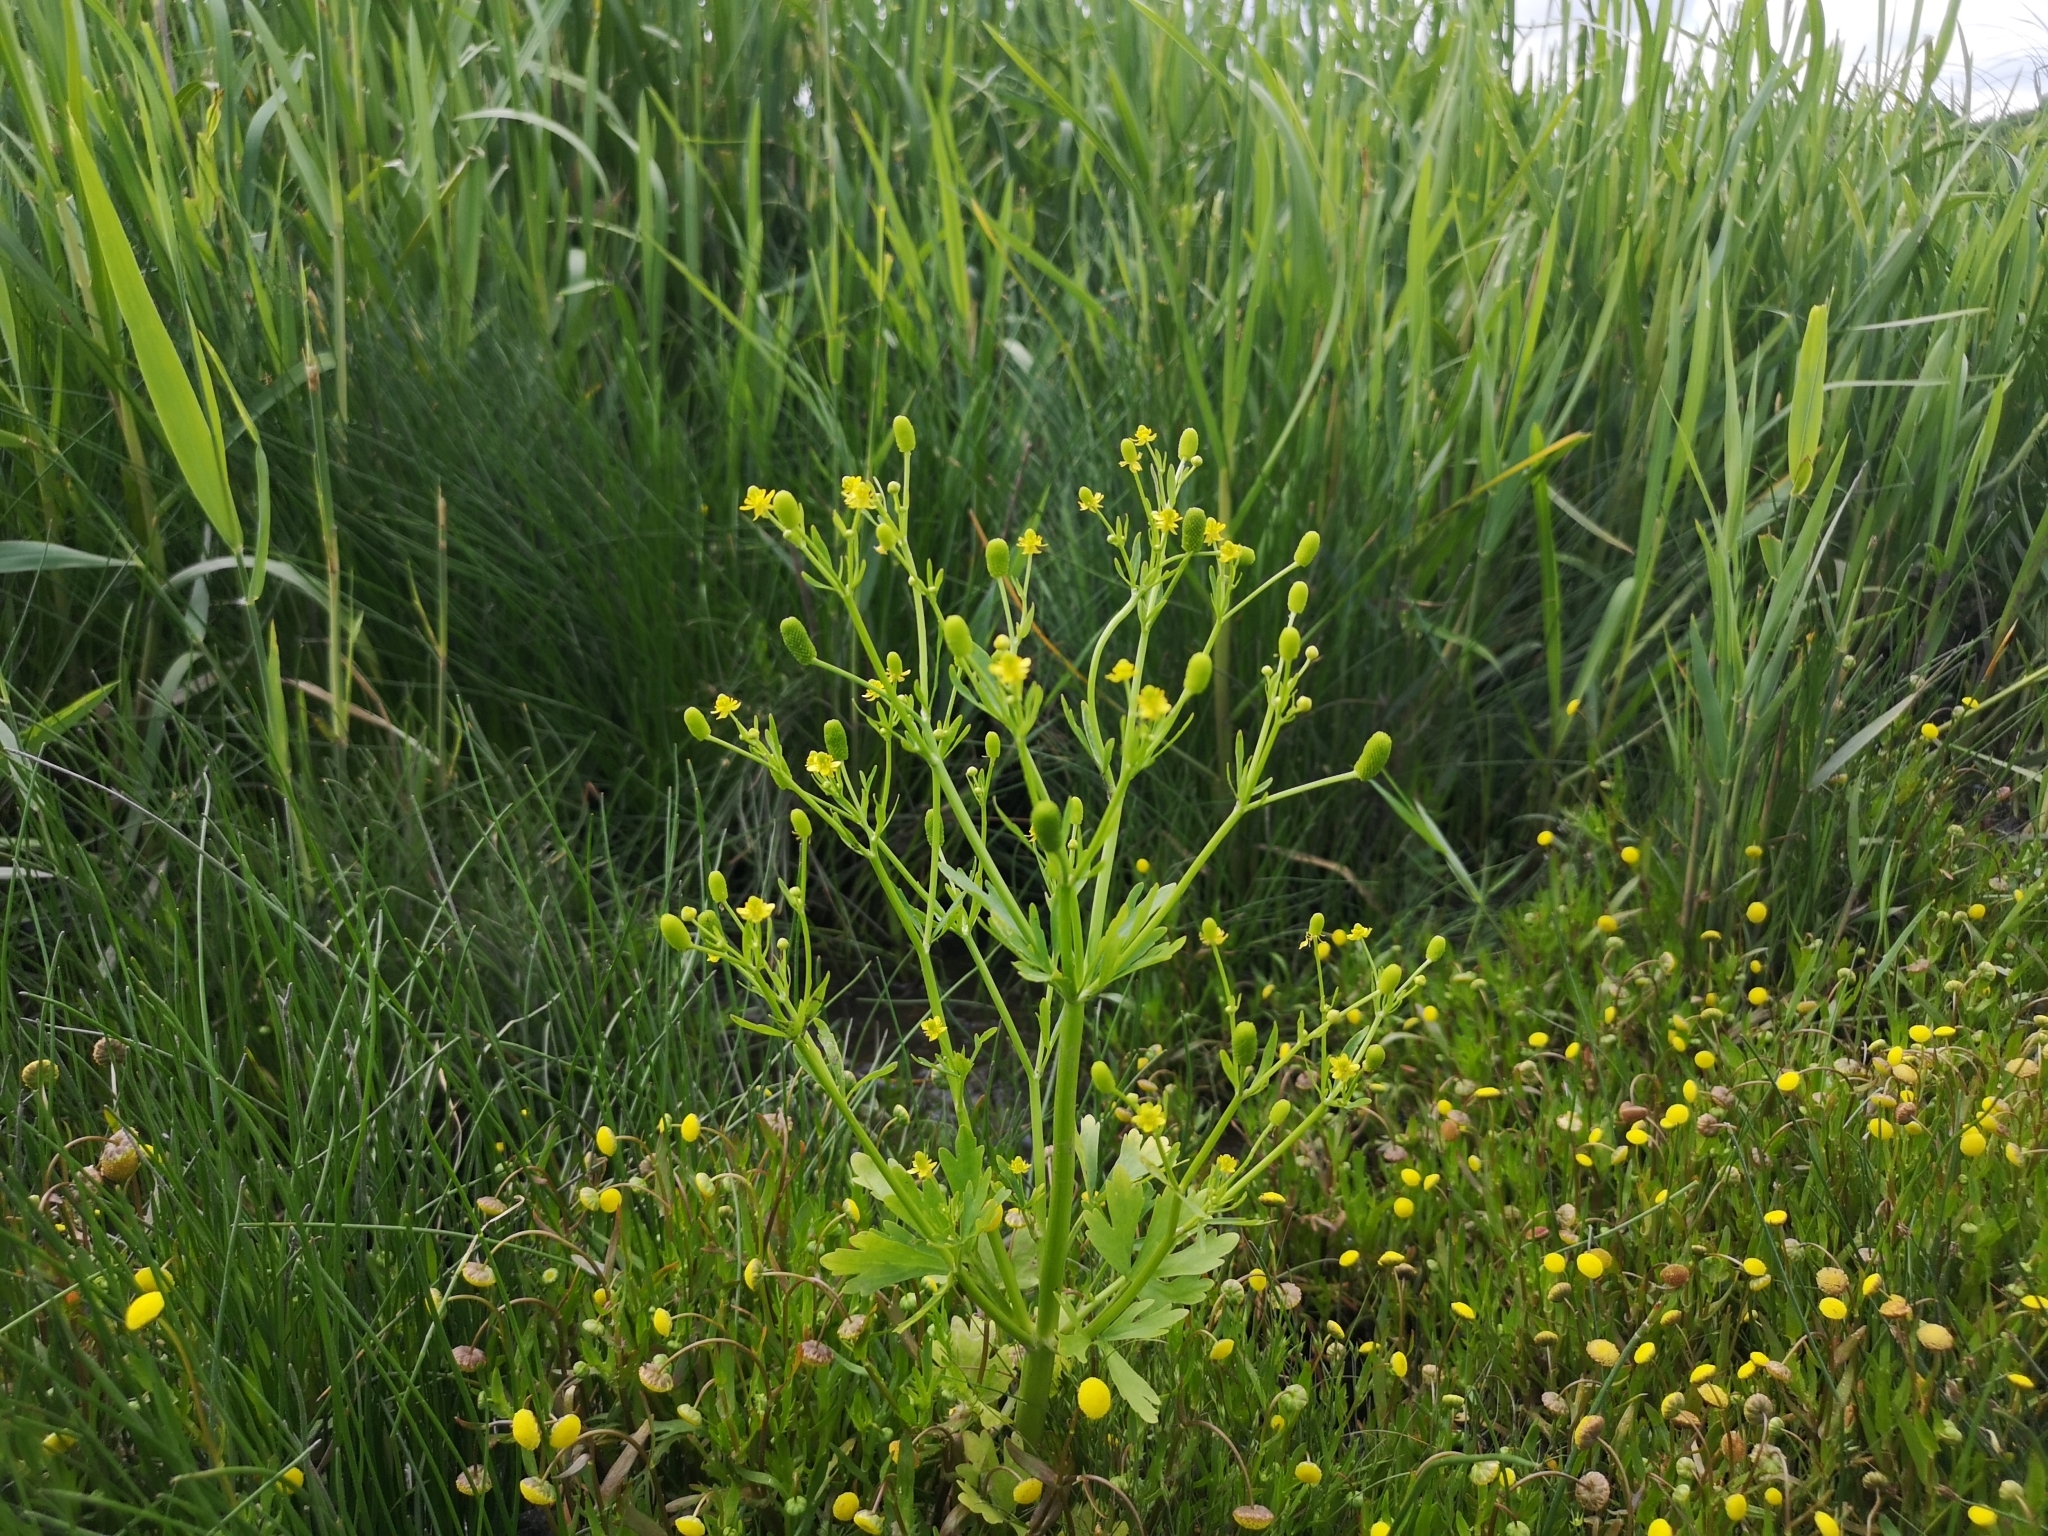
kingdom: Plantae
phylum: Tracheophyta
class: Magnoliopsida
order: Ranunculales
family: Ranunculaceae
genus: Ranunculus
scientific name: Ranunculus sceleratus
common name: Celery-leaved buttercup
